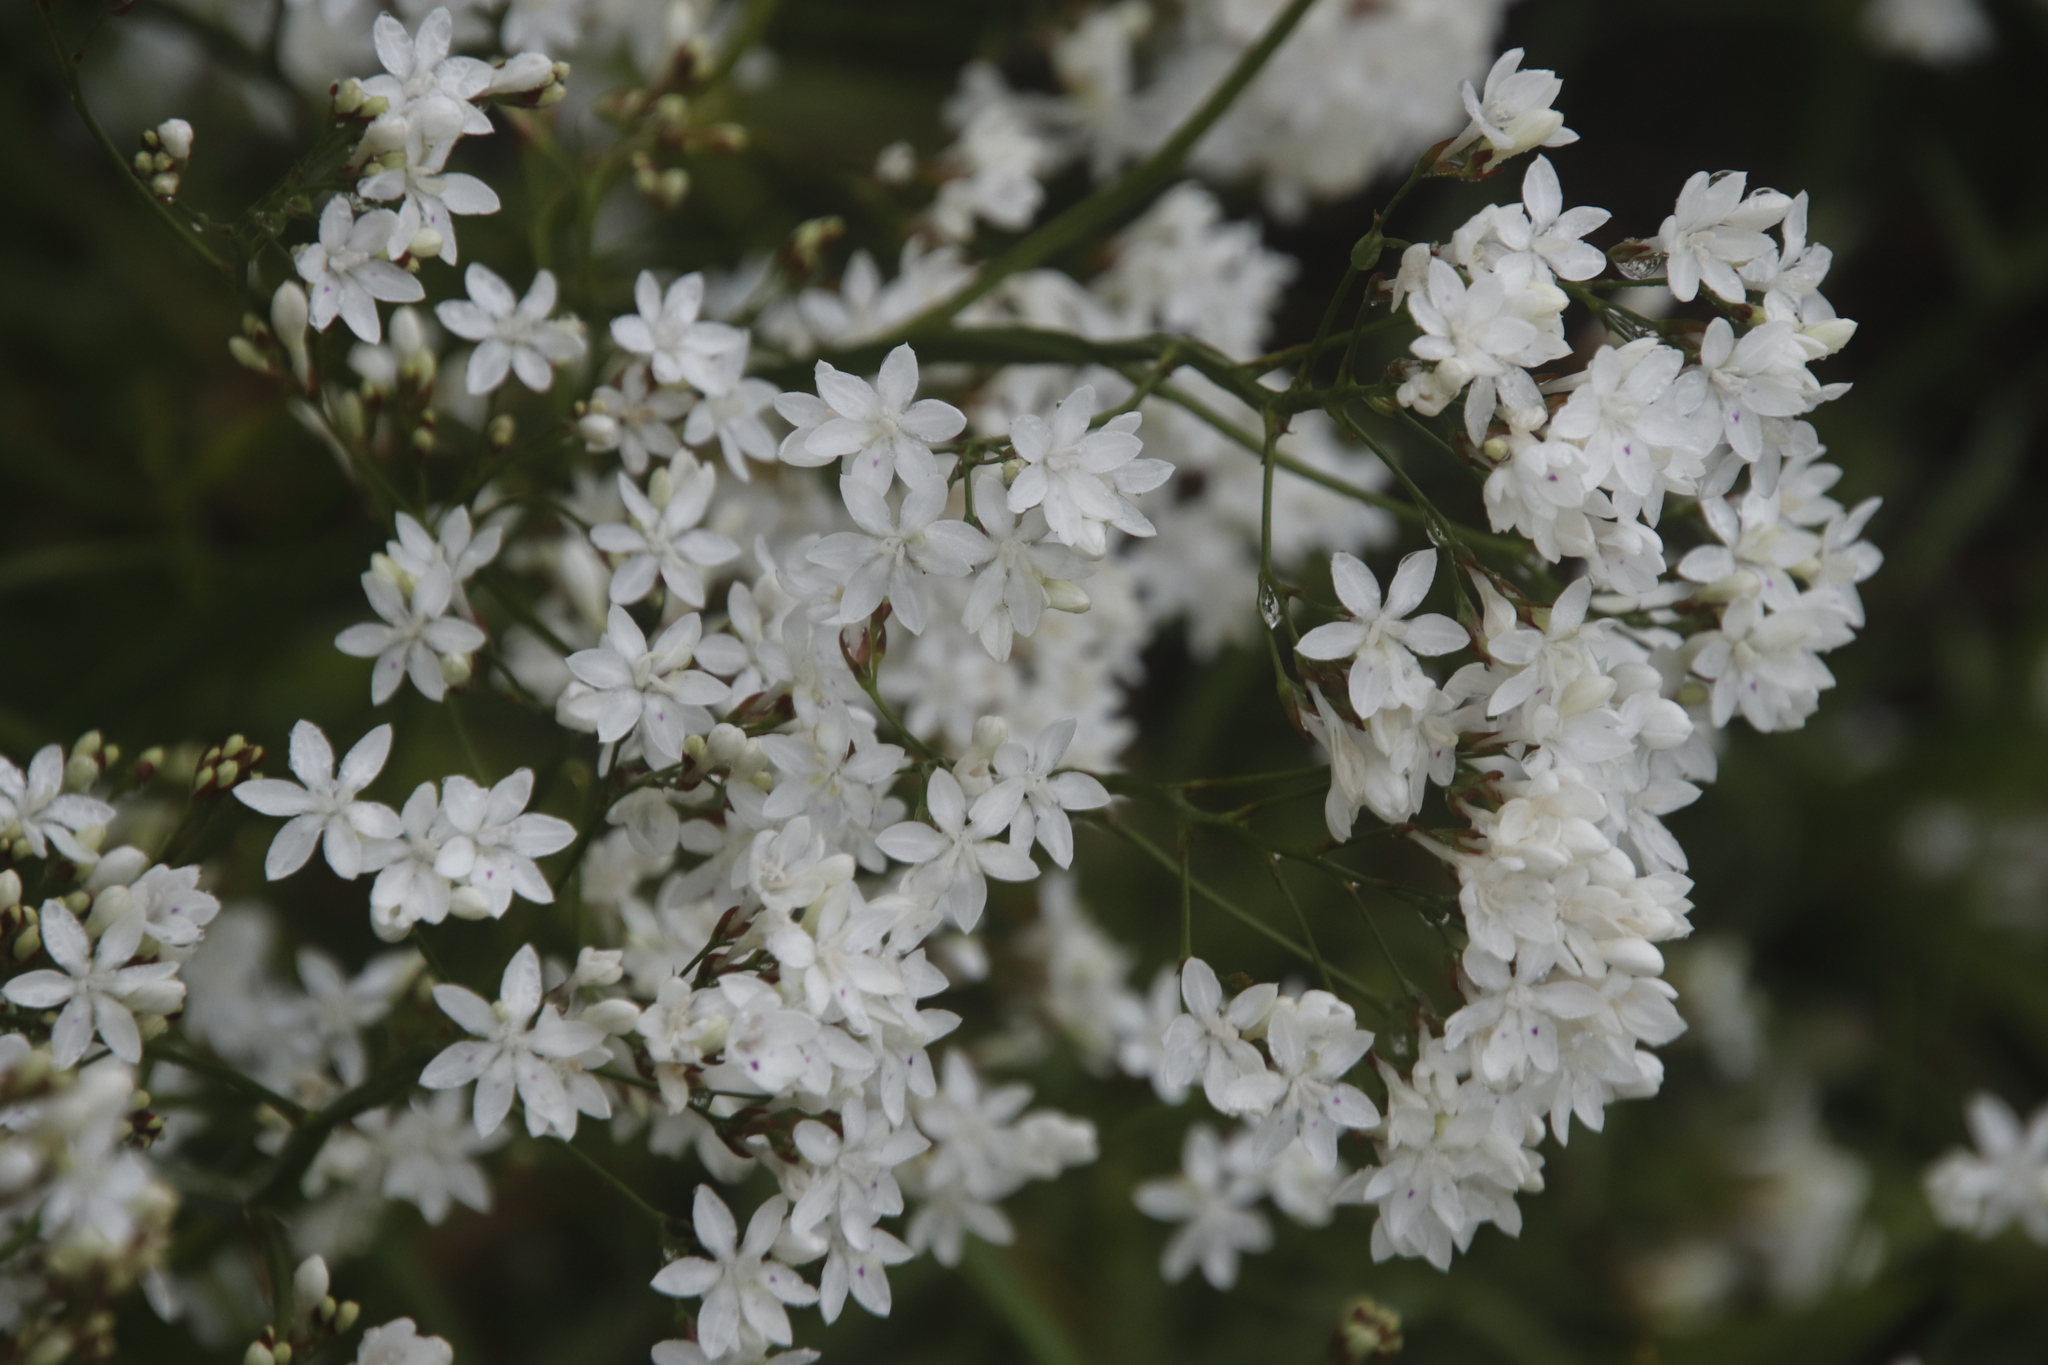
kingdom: Plantae
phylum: Tracheophyta
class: Liliopsida
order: Asparagales
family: Iridaceae
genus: Schizorhiza
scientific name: Schizorhiza neglecta
